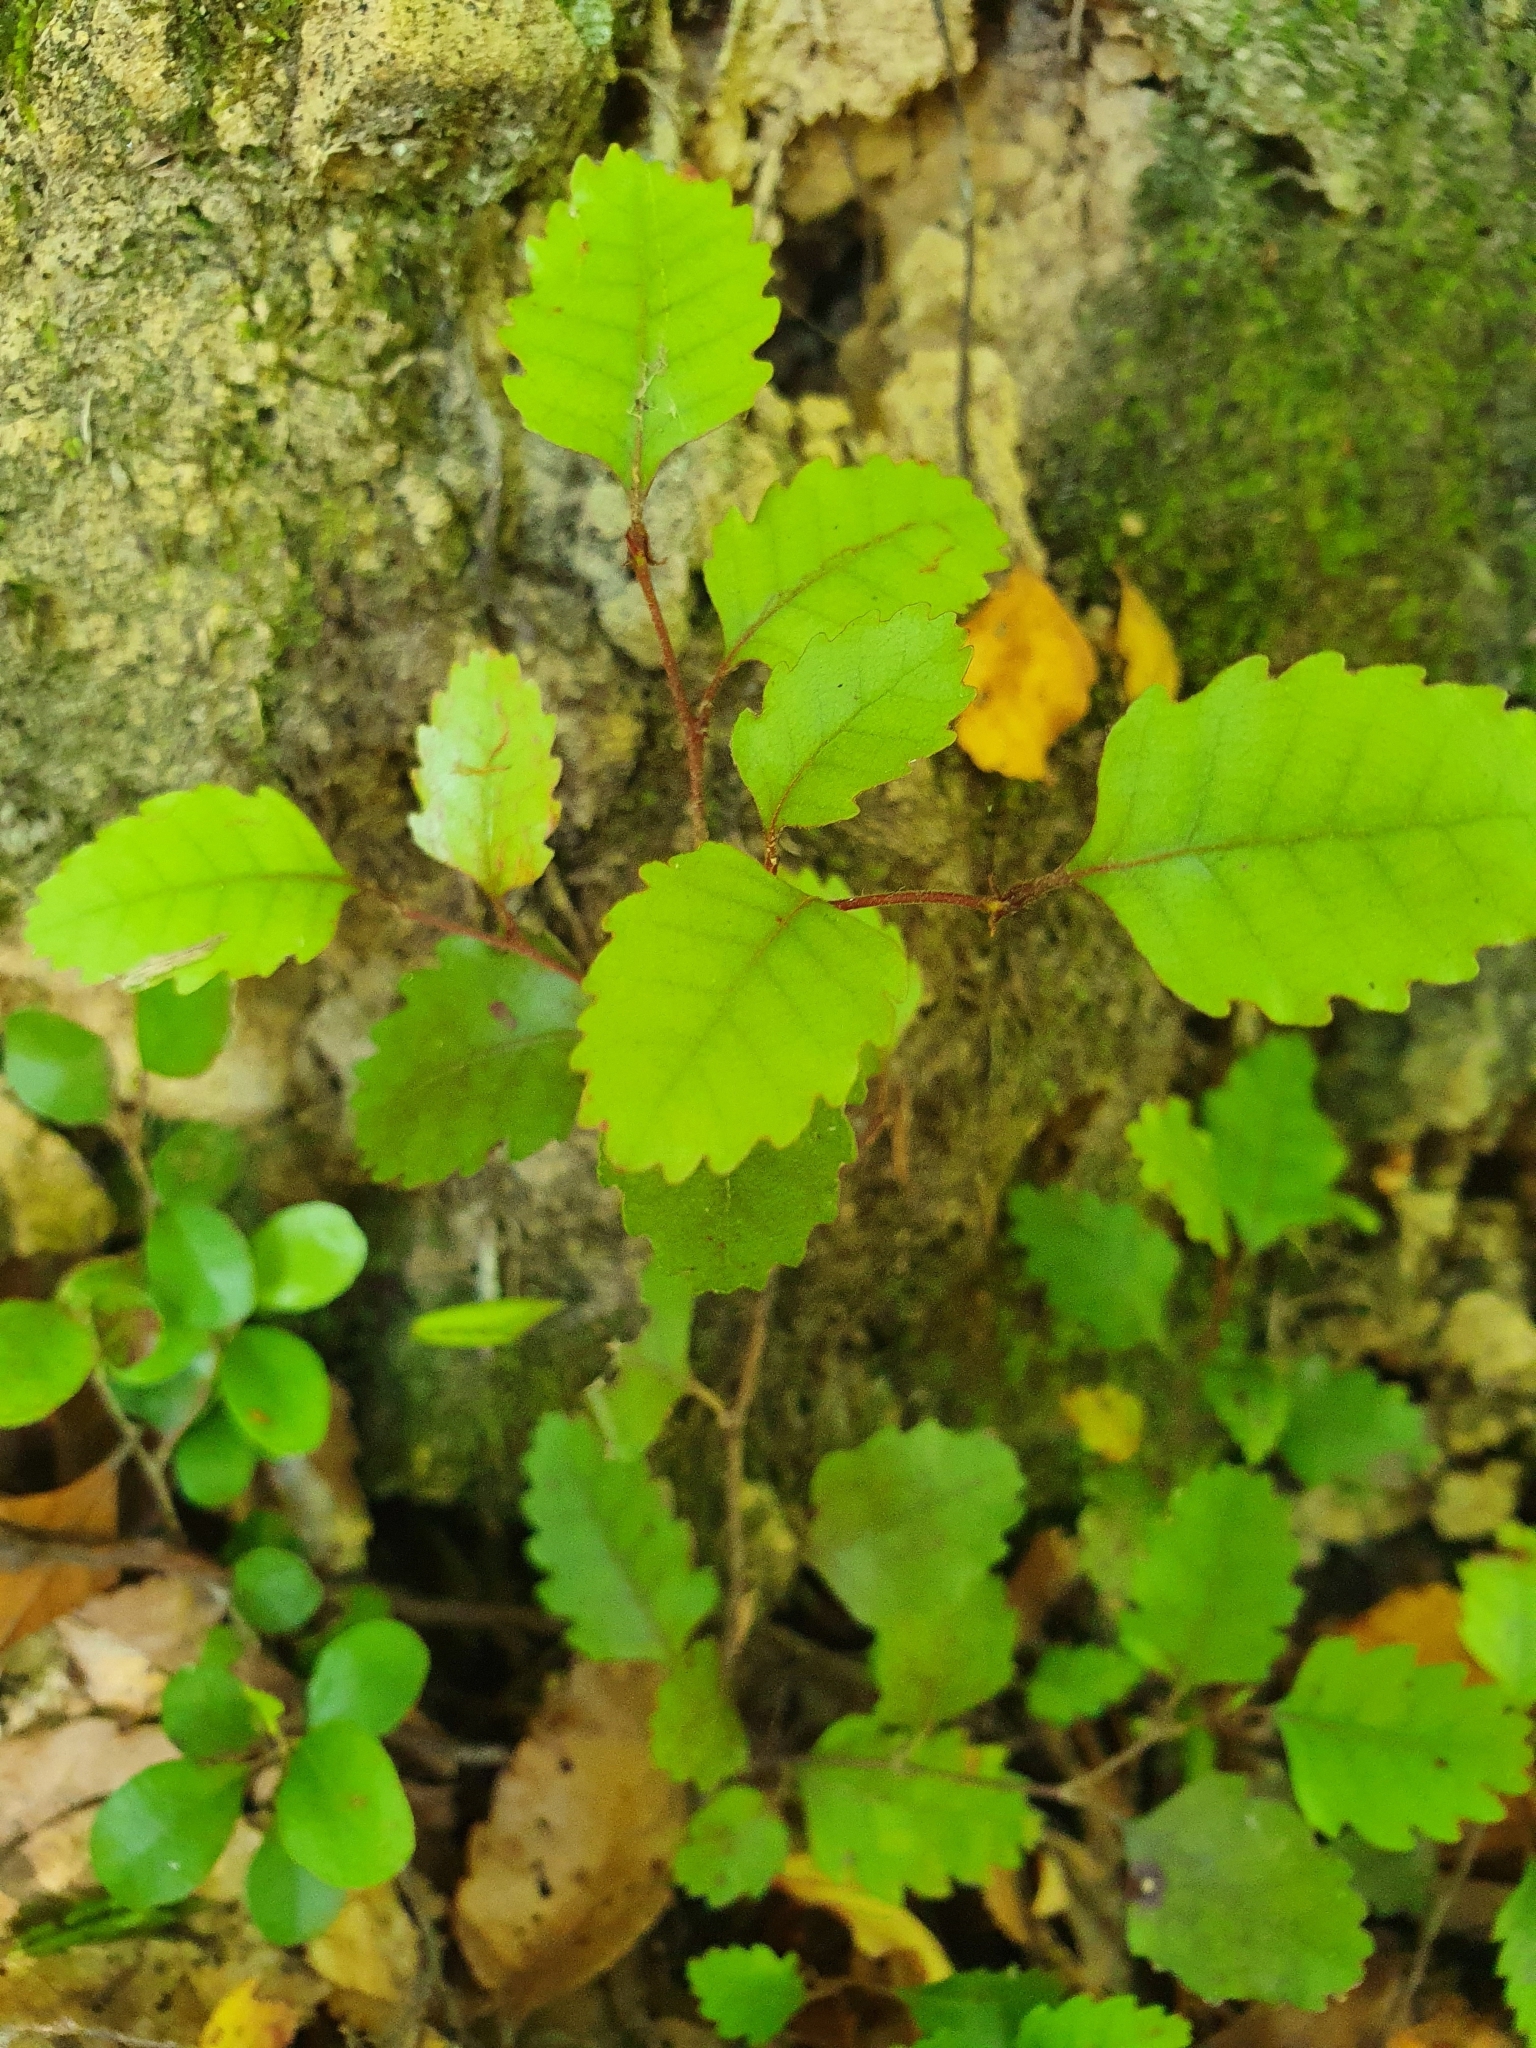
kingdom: Plantae
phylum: Tracheophyta
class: Magnoliopsida
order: Fagales
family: Nothofagaceae
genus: Nothofagus
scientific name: Nothofagus truncata
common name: Hard beech
